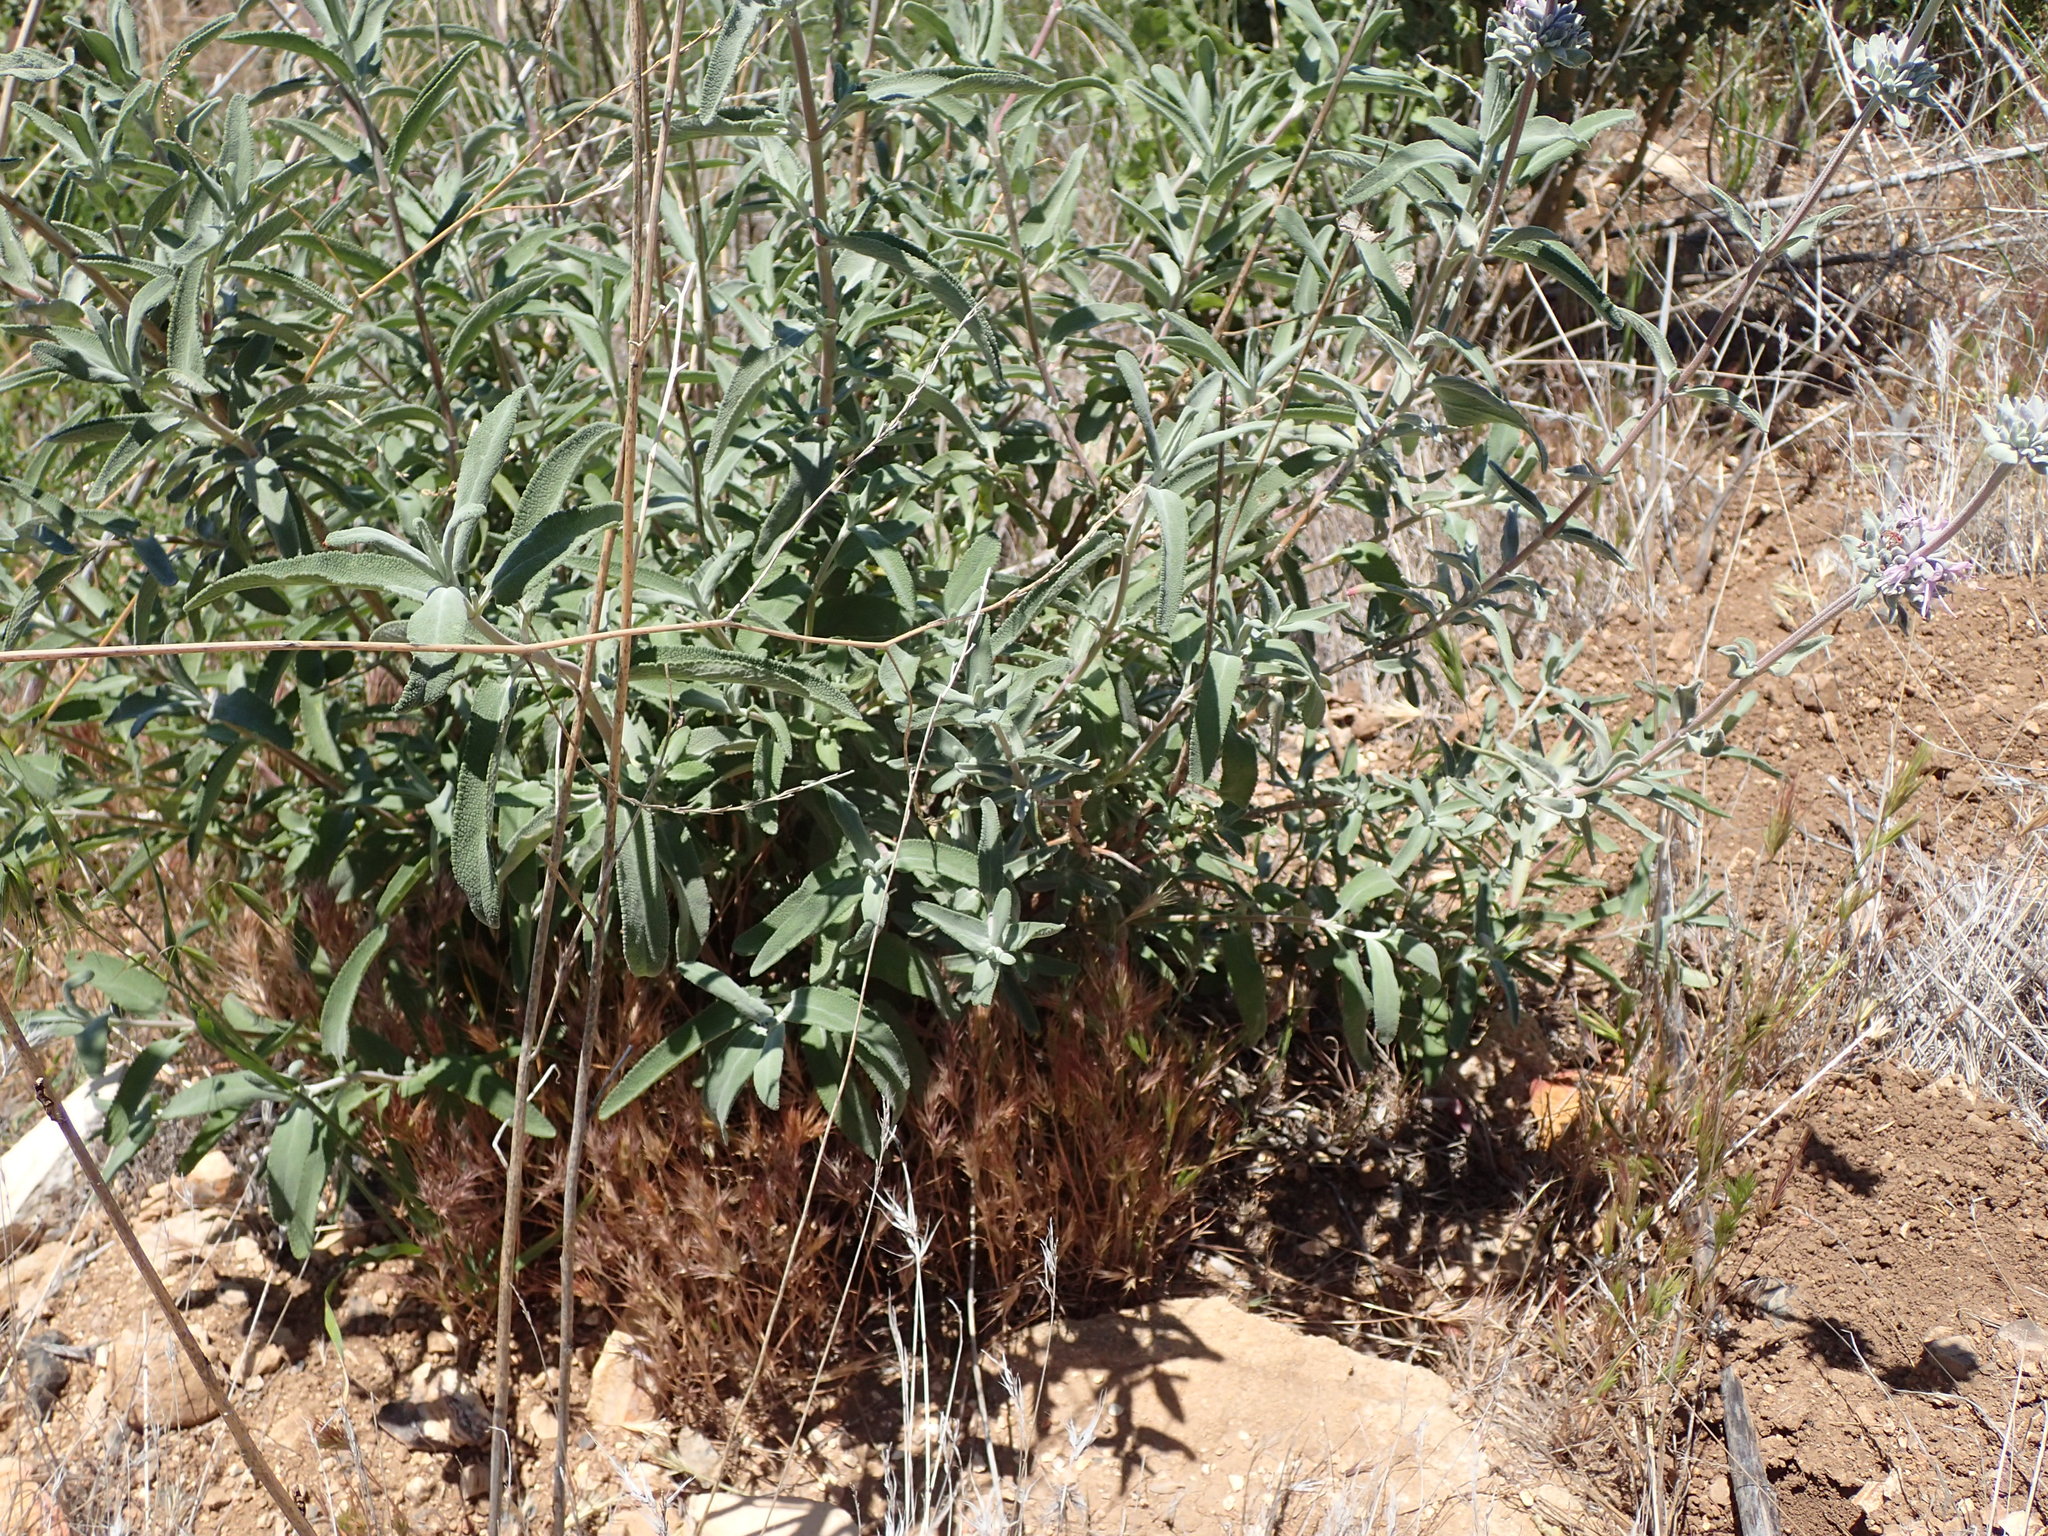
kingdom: Plantae
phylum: Tracheophyta
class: Magnoliopsida
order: Lamiales
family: Lamiaceae
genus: Salvia
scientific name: Salvia leucophylla
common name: Purple sage
